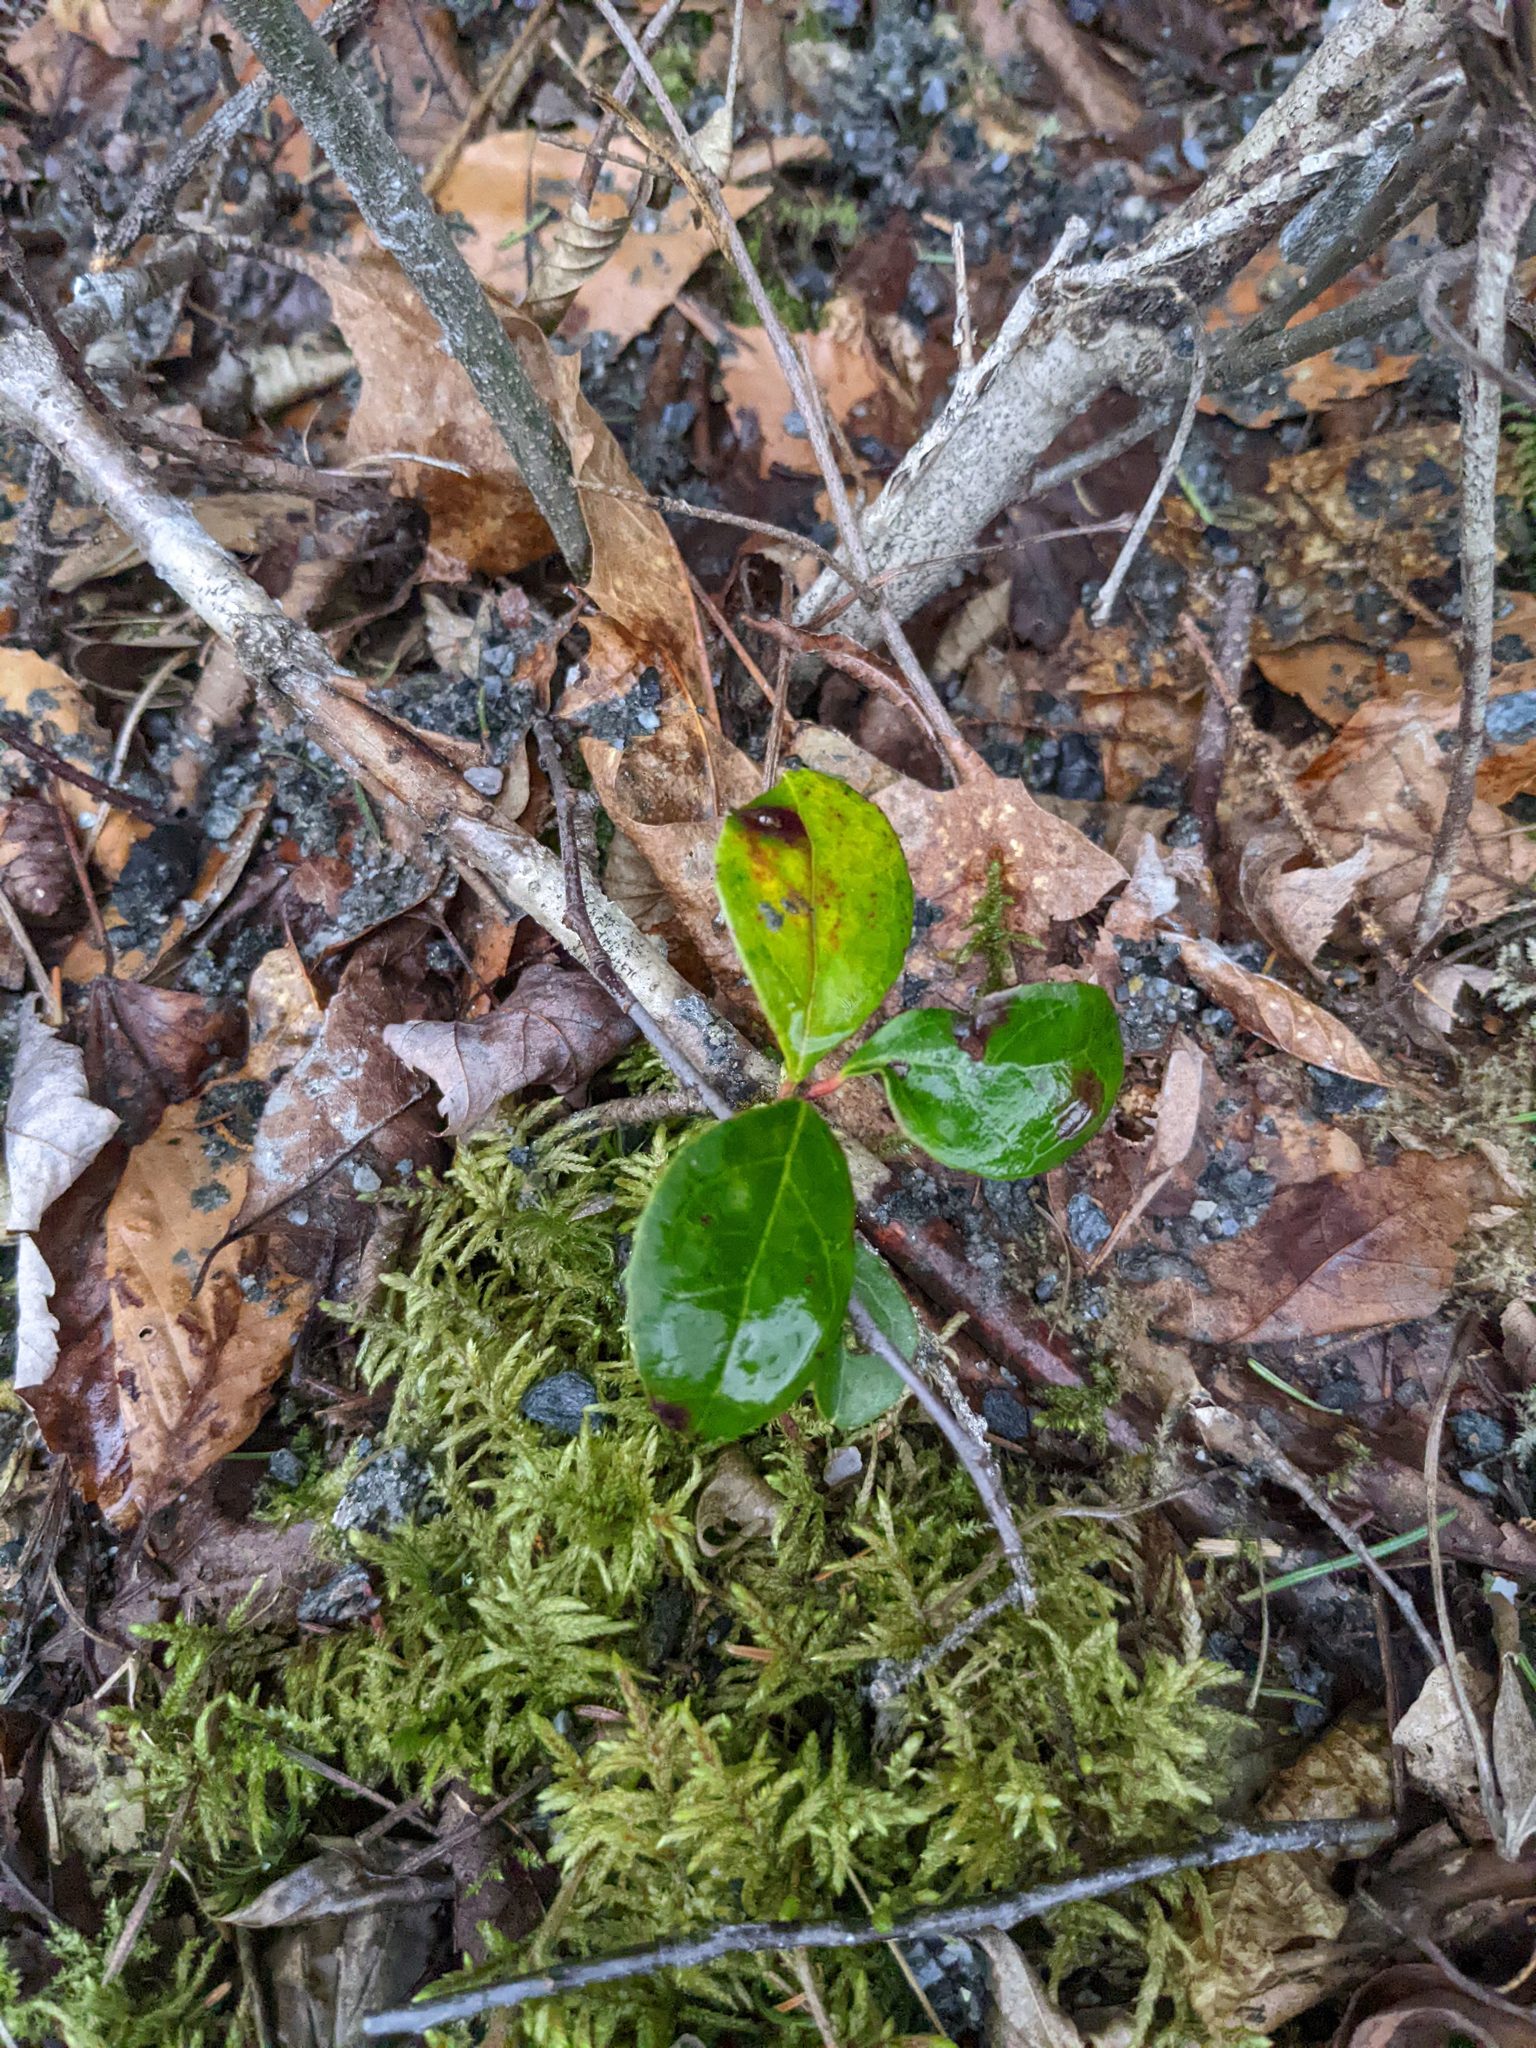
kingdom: Plantae
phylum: Tracheophyta
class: Magnoliopsida
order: Ericales
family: Ericaceae
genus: Gaultheria
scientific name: Gaultheria procumbens
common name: Checkerberry
